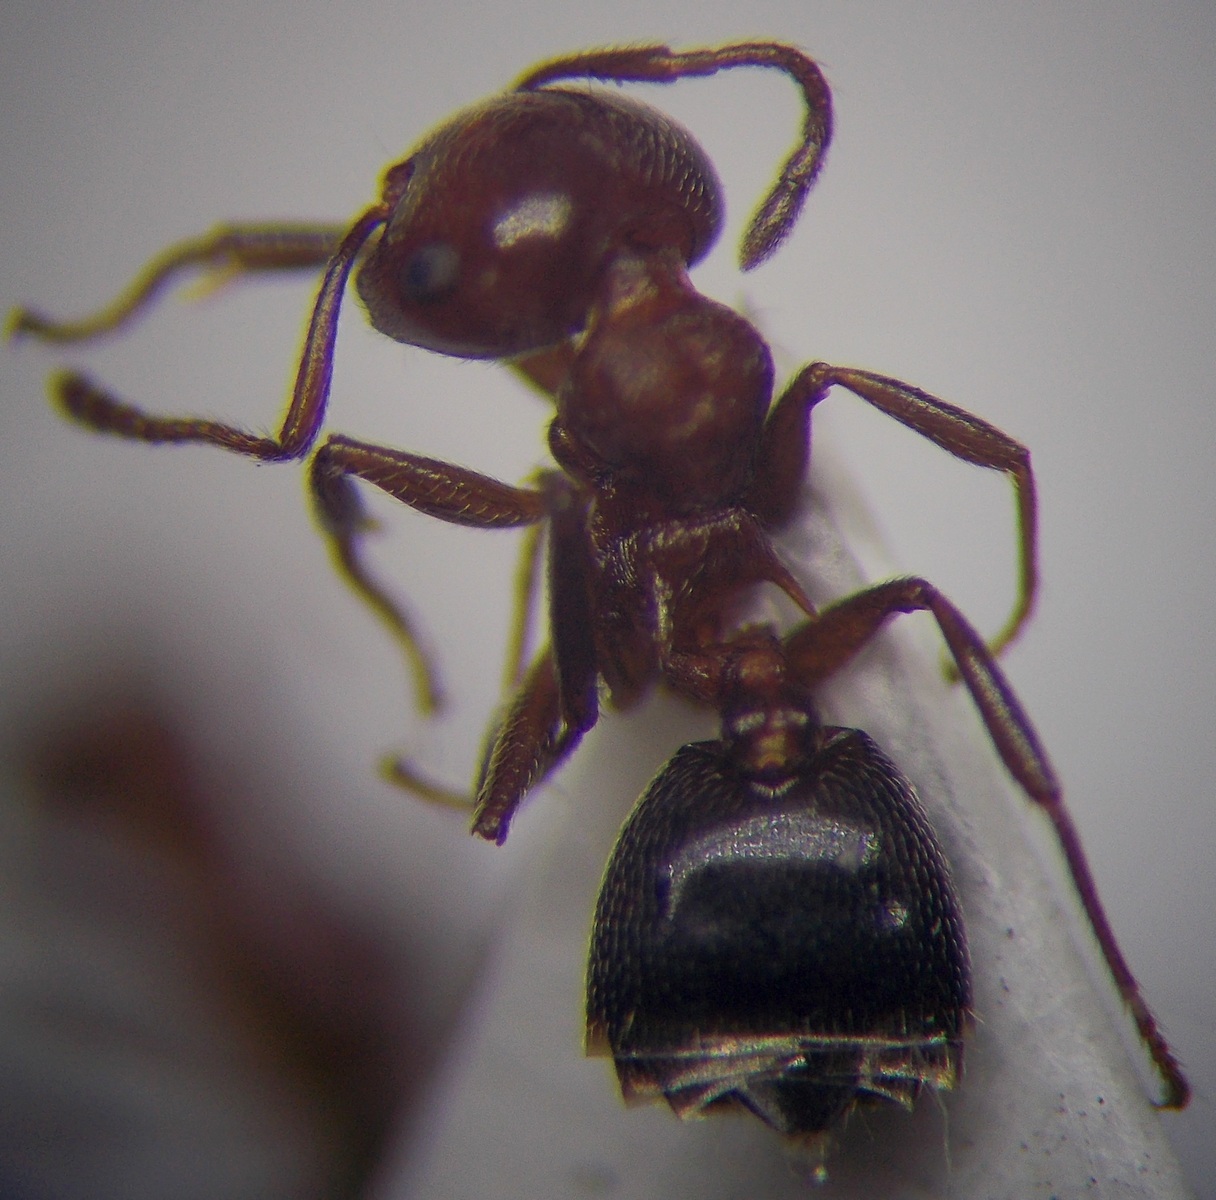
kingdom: Animalia
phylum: Arthropoda
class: Insecta
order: Hymenoptera
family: Formicidae
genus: Crematogaster
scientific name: Crematogaster schmidti
